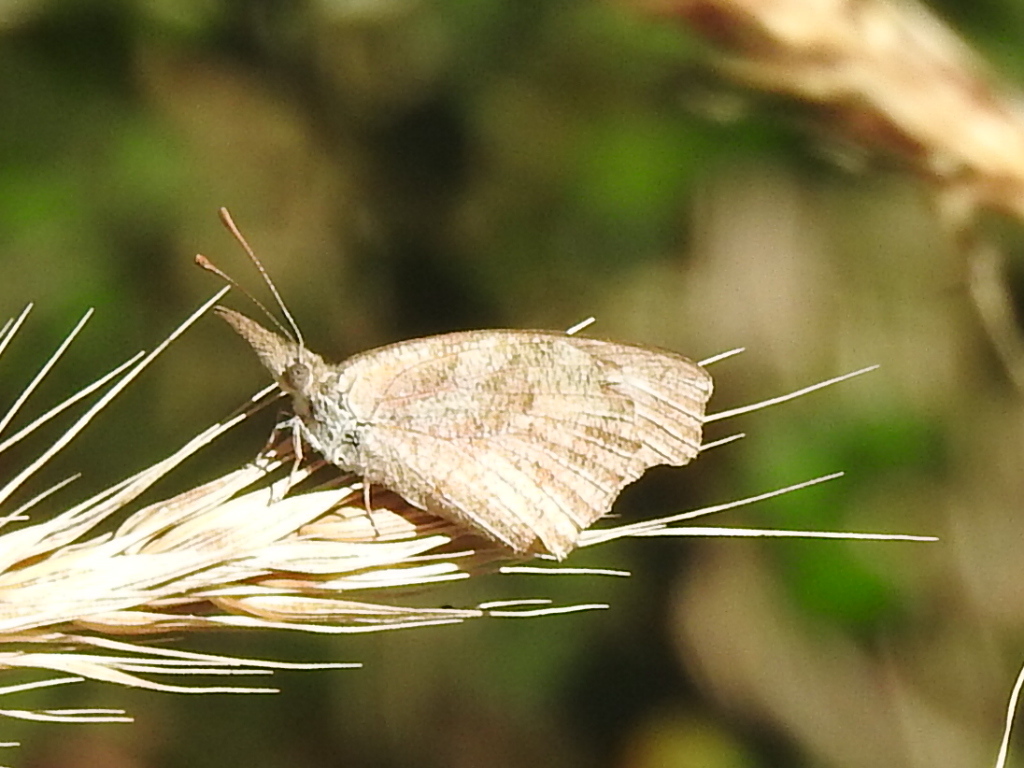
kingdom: Animalia
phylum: Arthropoda
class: Insecta
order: Lepidoptera
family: Nymphalidae
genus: Libytheana
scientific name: Libytheana carinenta
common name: American snout
